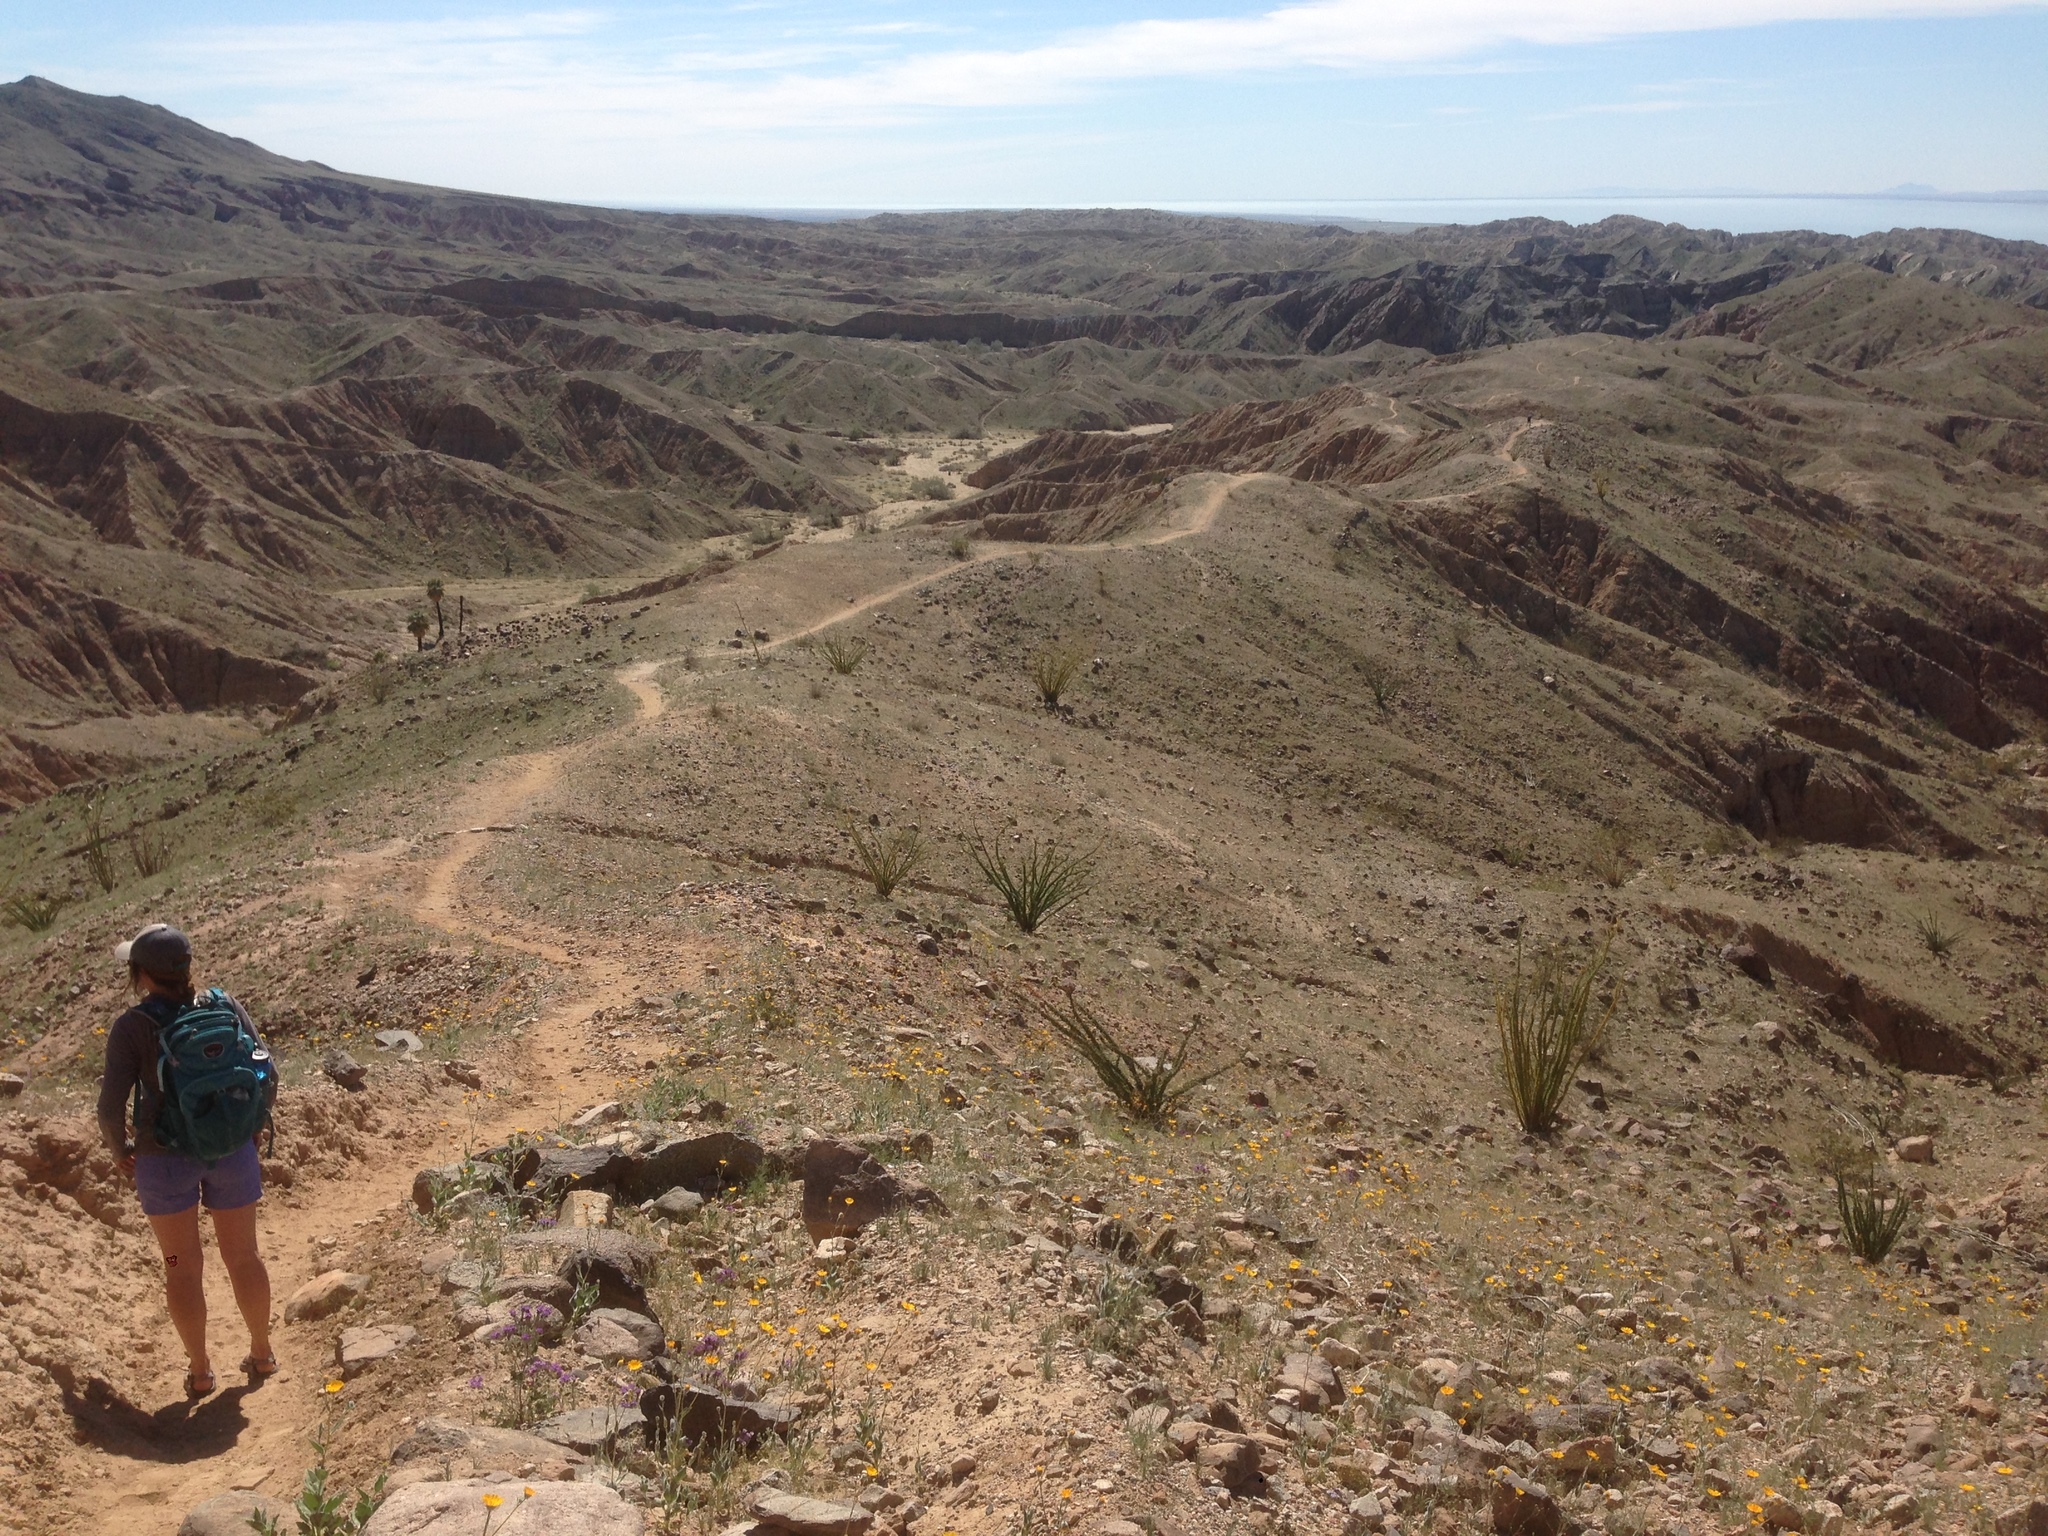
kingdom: Plantae
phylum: Tracheophyta
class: Magnoliopsida
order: Ericales
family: Fouquieriaceae
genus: Fouquieria
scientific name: Fouquieria splendens
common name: Vine-cactus
